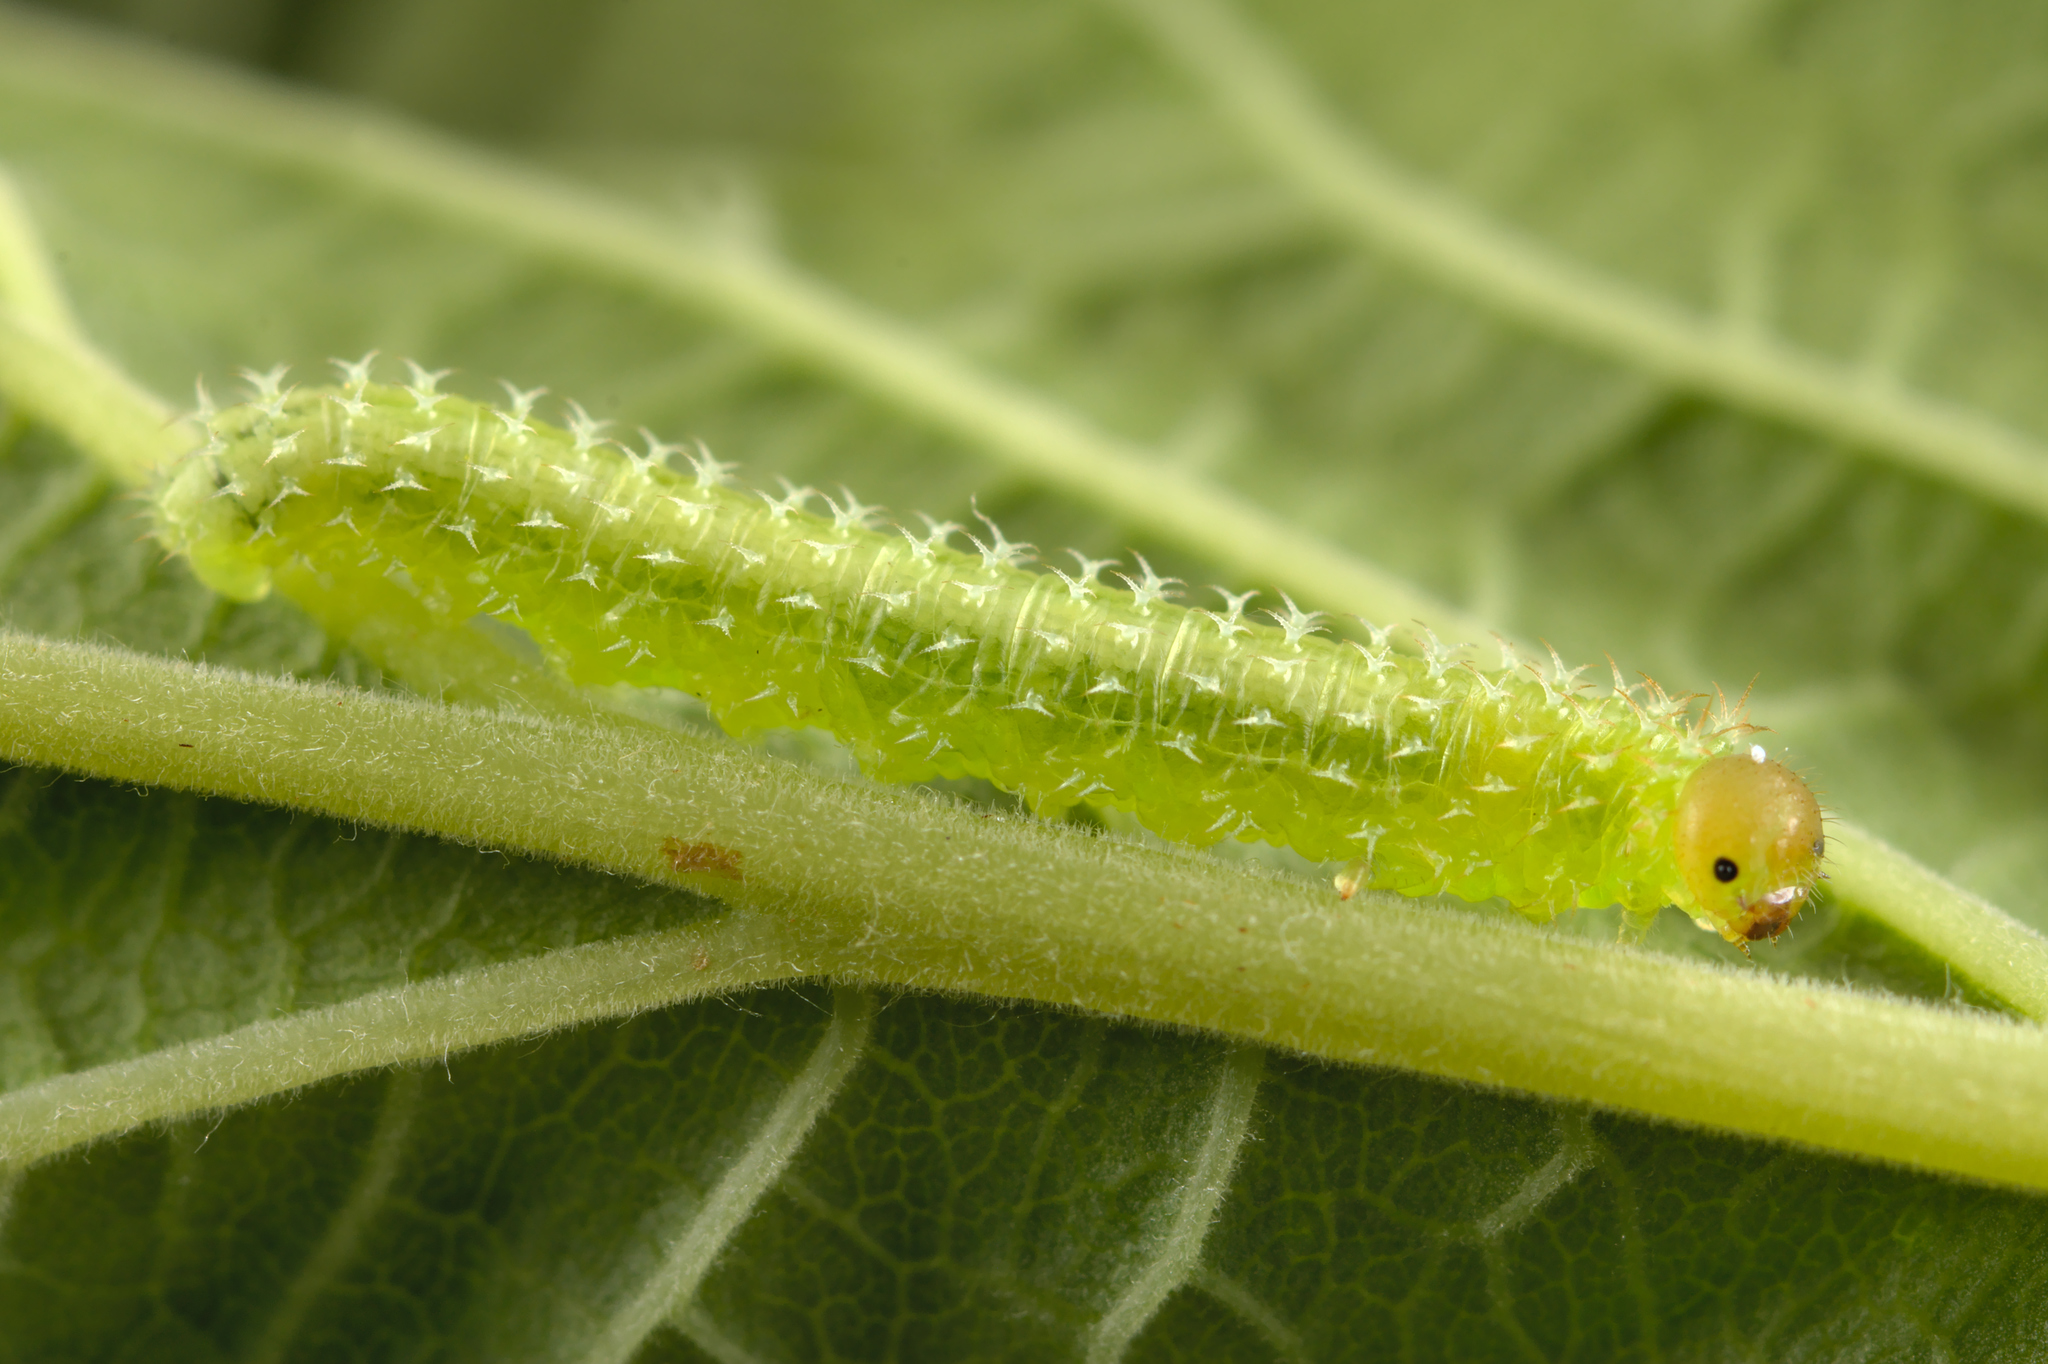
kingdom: Animalia
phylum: Arthropoda
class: Insecta
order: Hymenoptera
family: Tenthredinidae
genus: Monophadnoides
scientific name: Monophadnoides rubi
